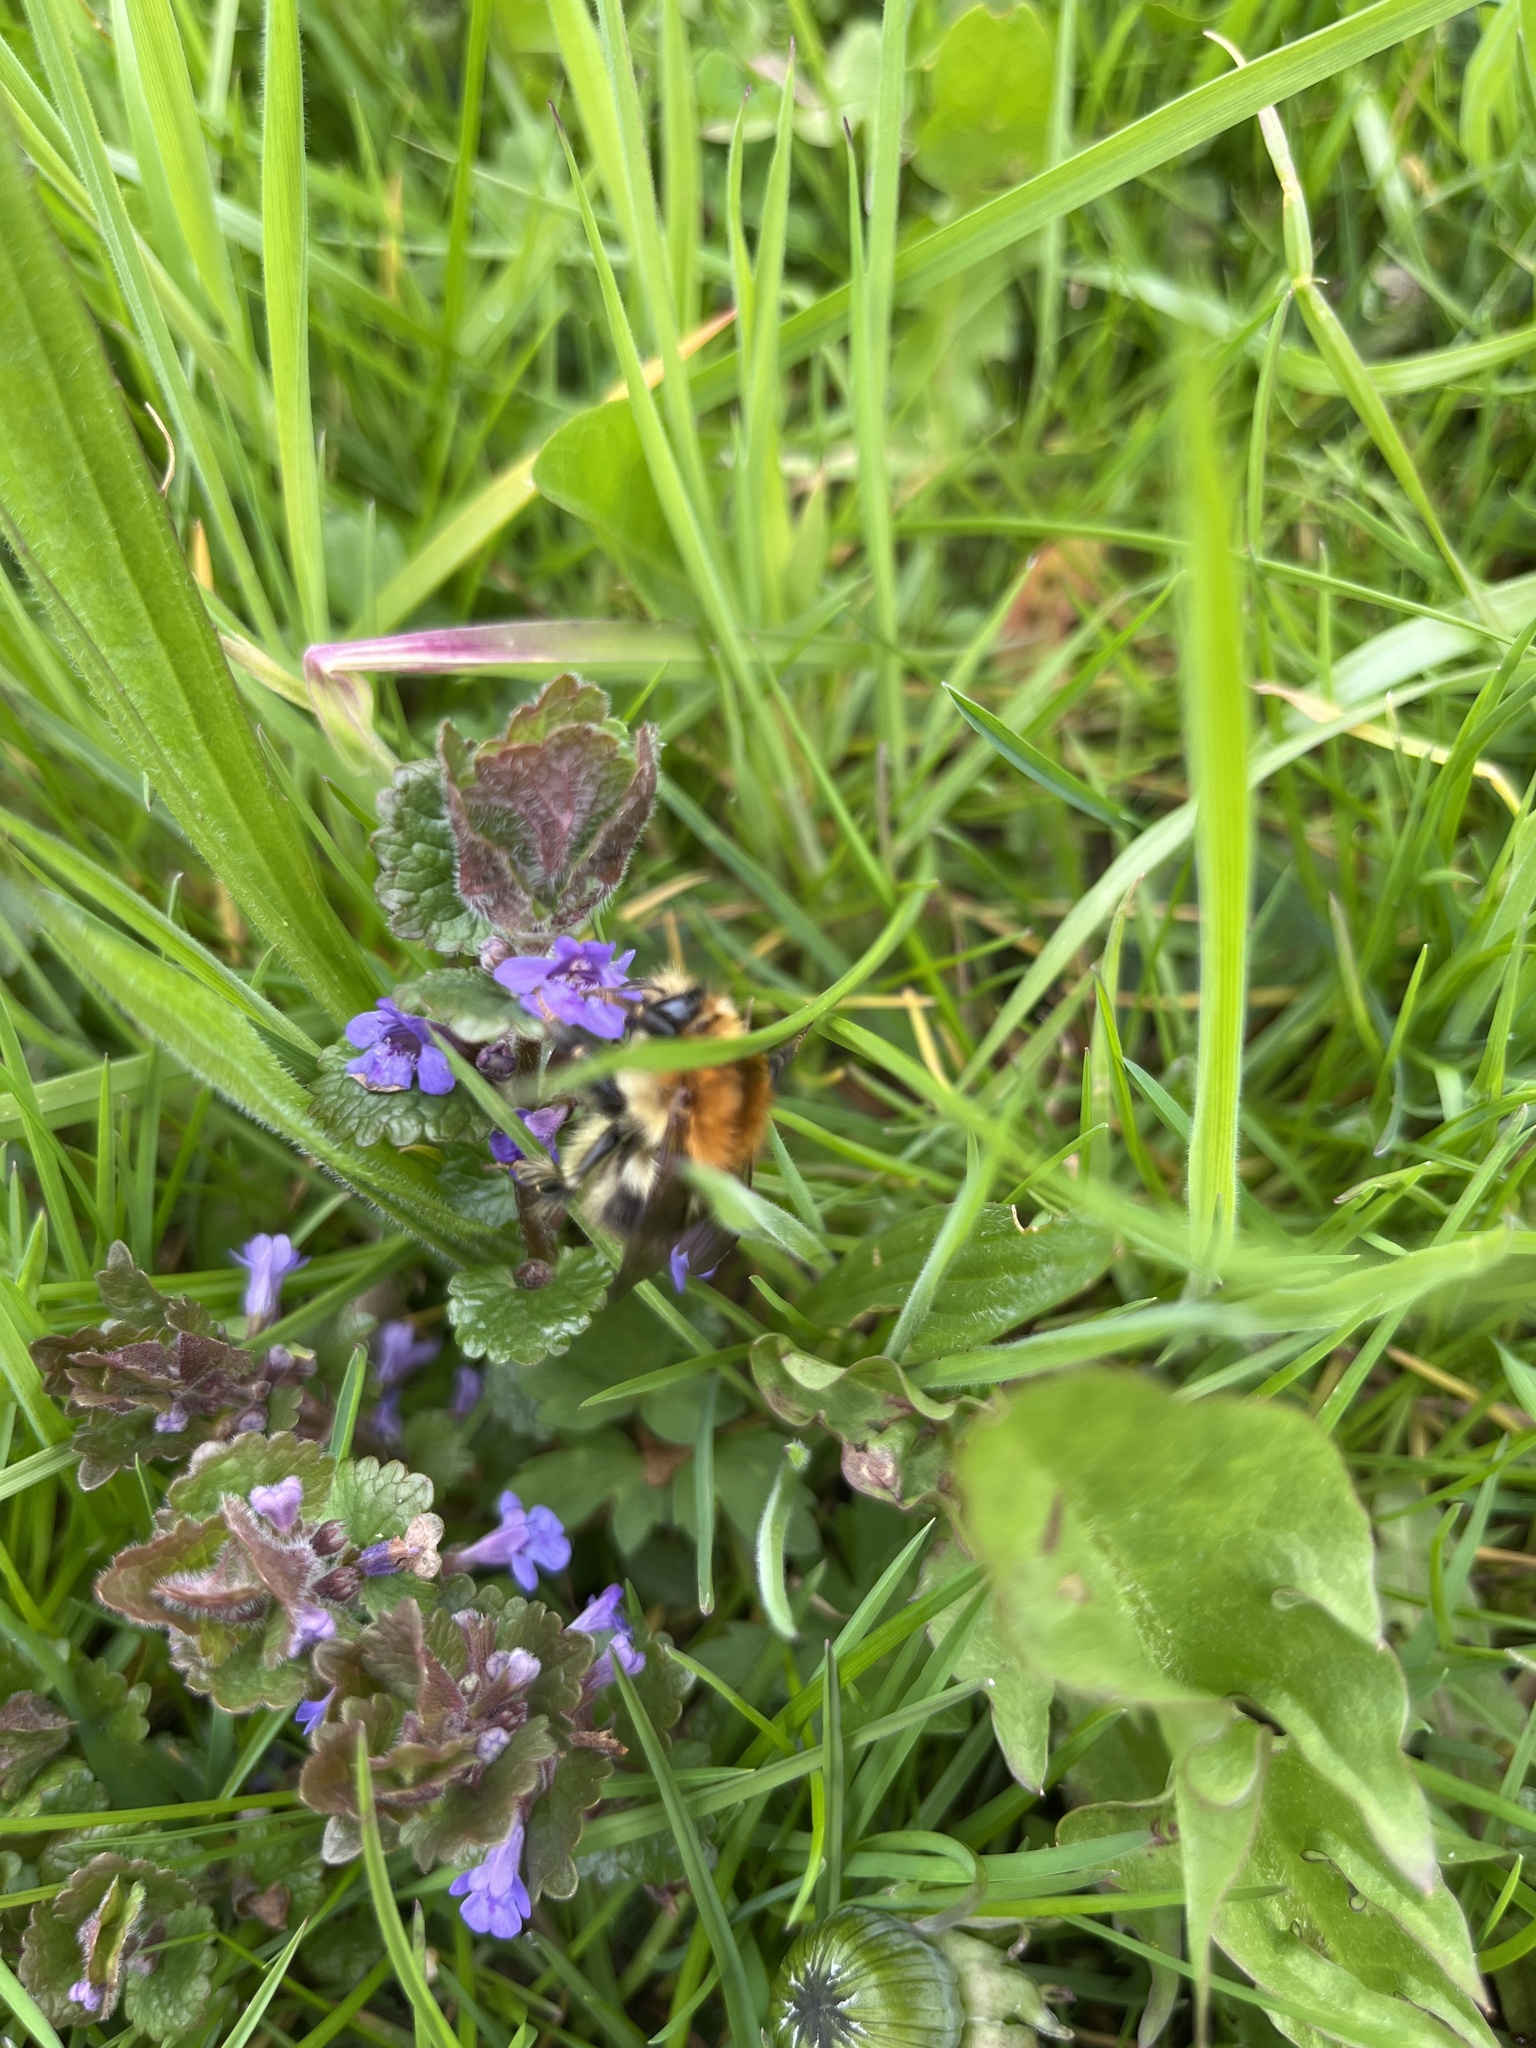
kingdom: Animalia
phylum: Arthropoda
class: Insecta
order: Hymenoptera
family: Apidae
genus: Bombus
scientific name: Bombus pascuorum
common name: Common carder bee
